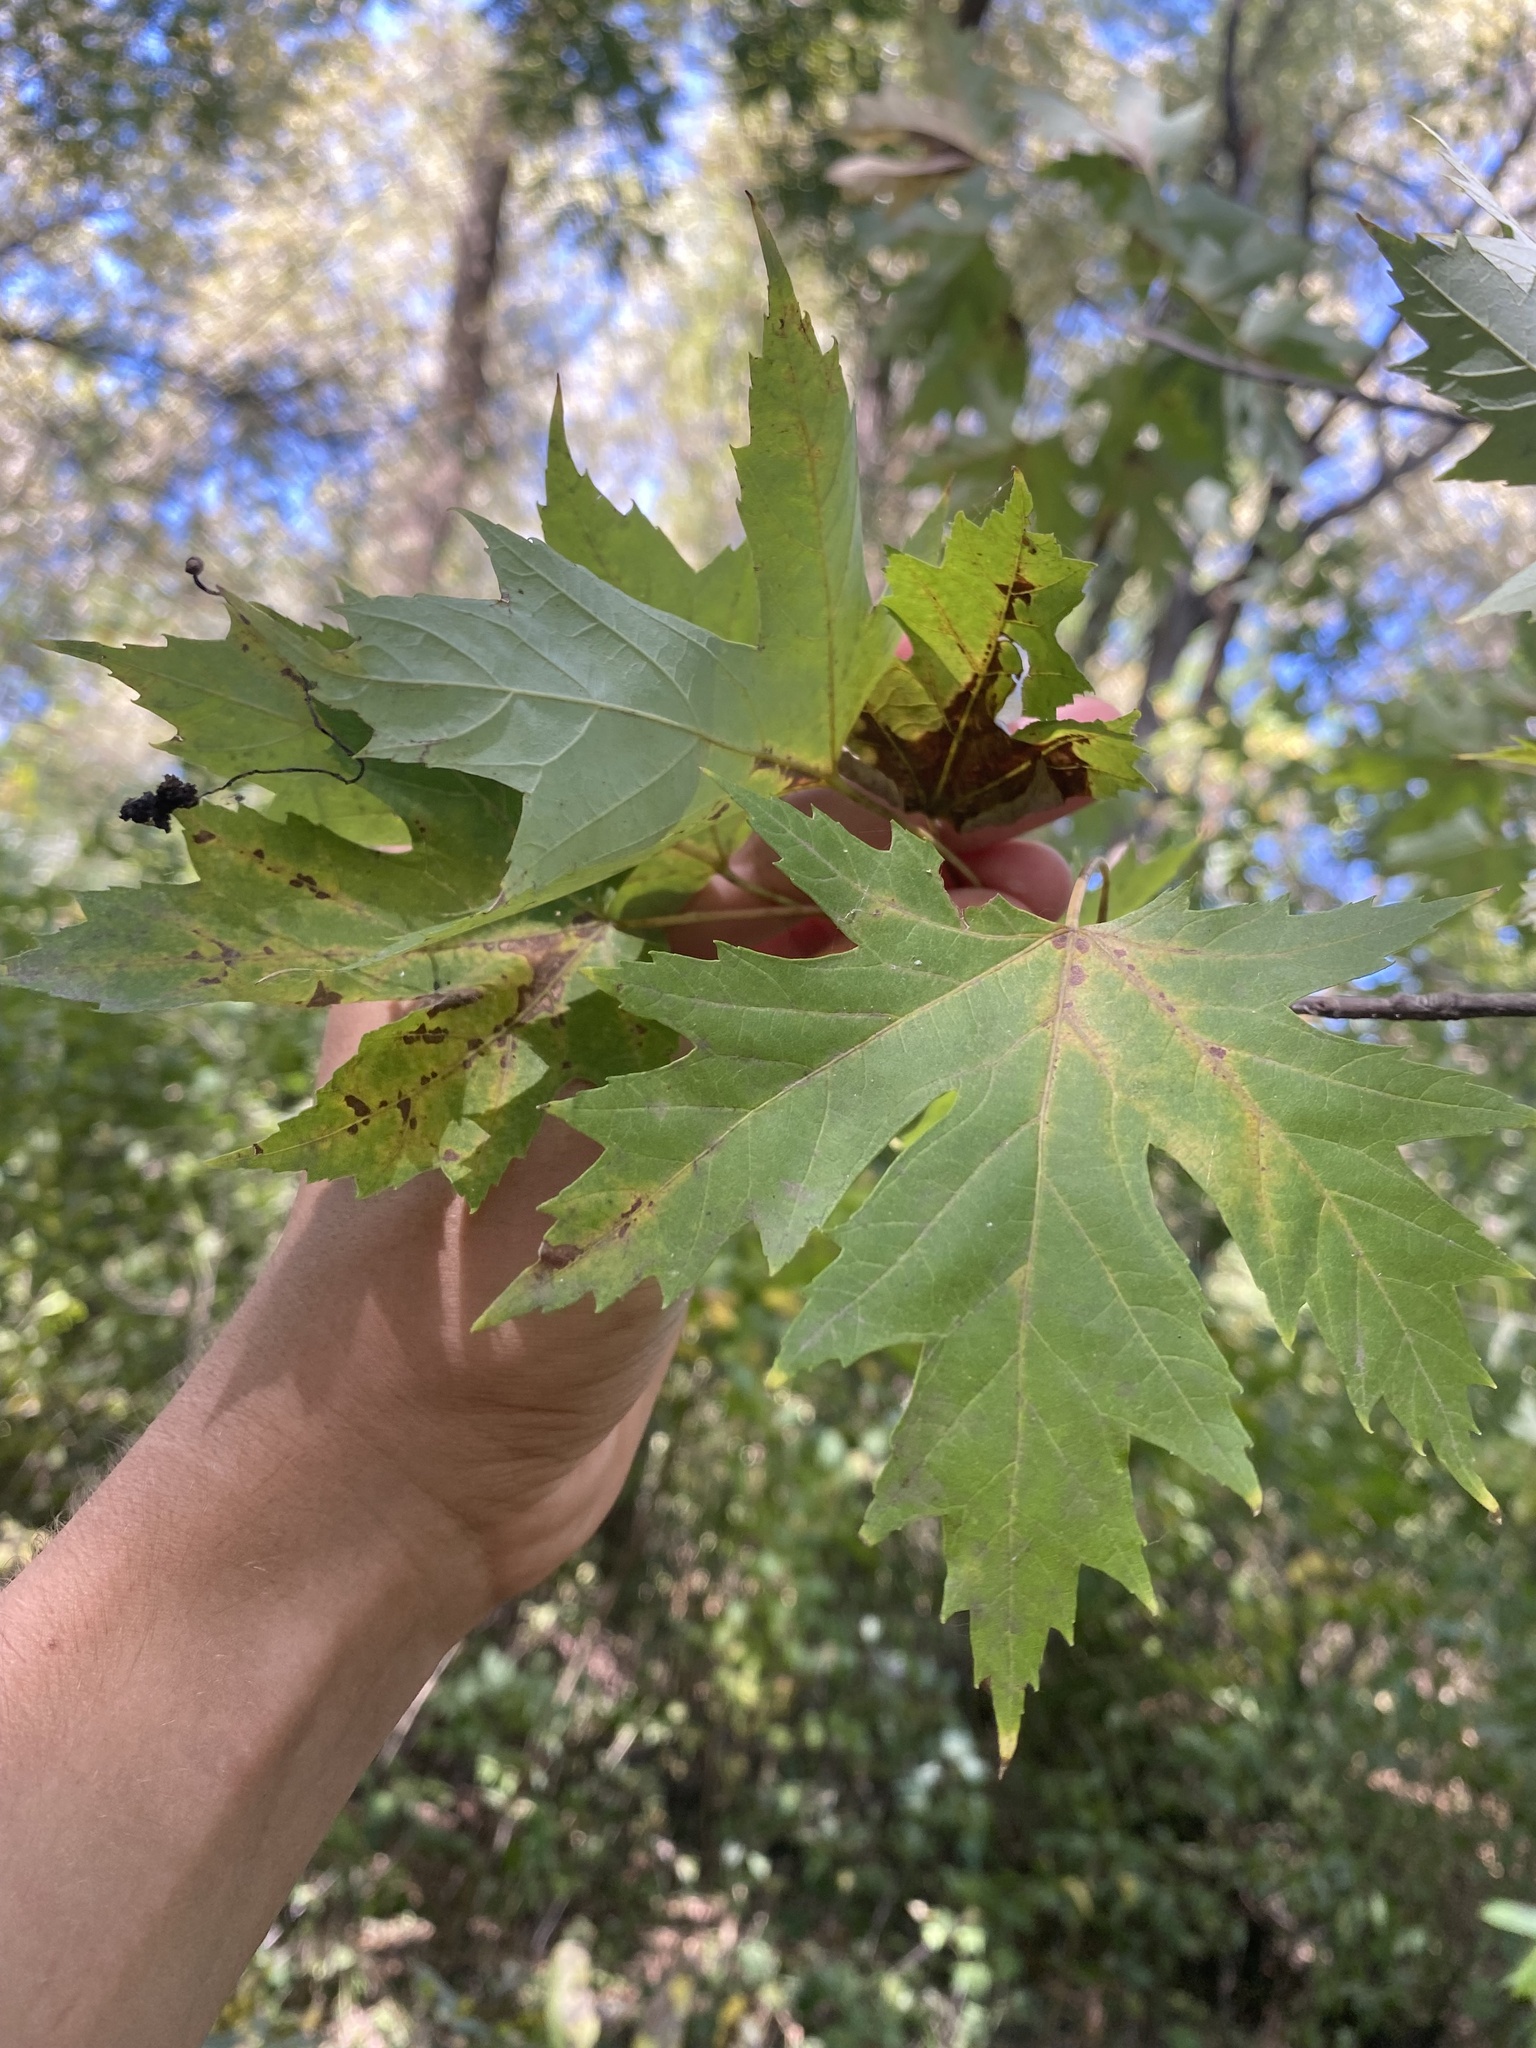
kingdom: Plantae
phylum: Tracheophyta
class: Magnoliopsida
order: Sapindales
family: Sapindaceae
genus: Acer
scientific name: Acer saccharinum
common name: Silver maple
